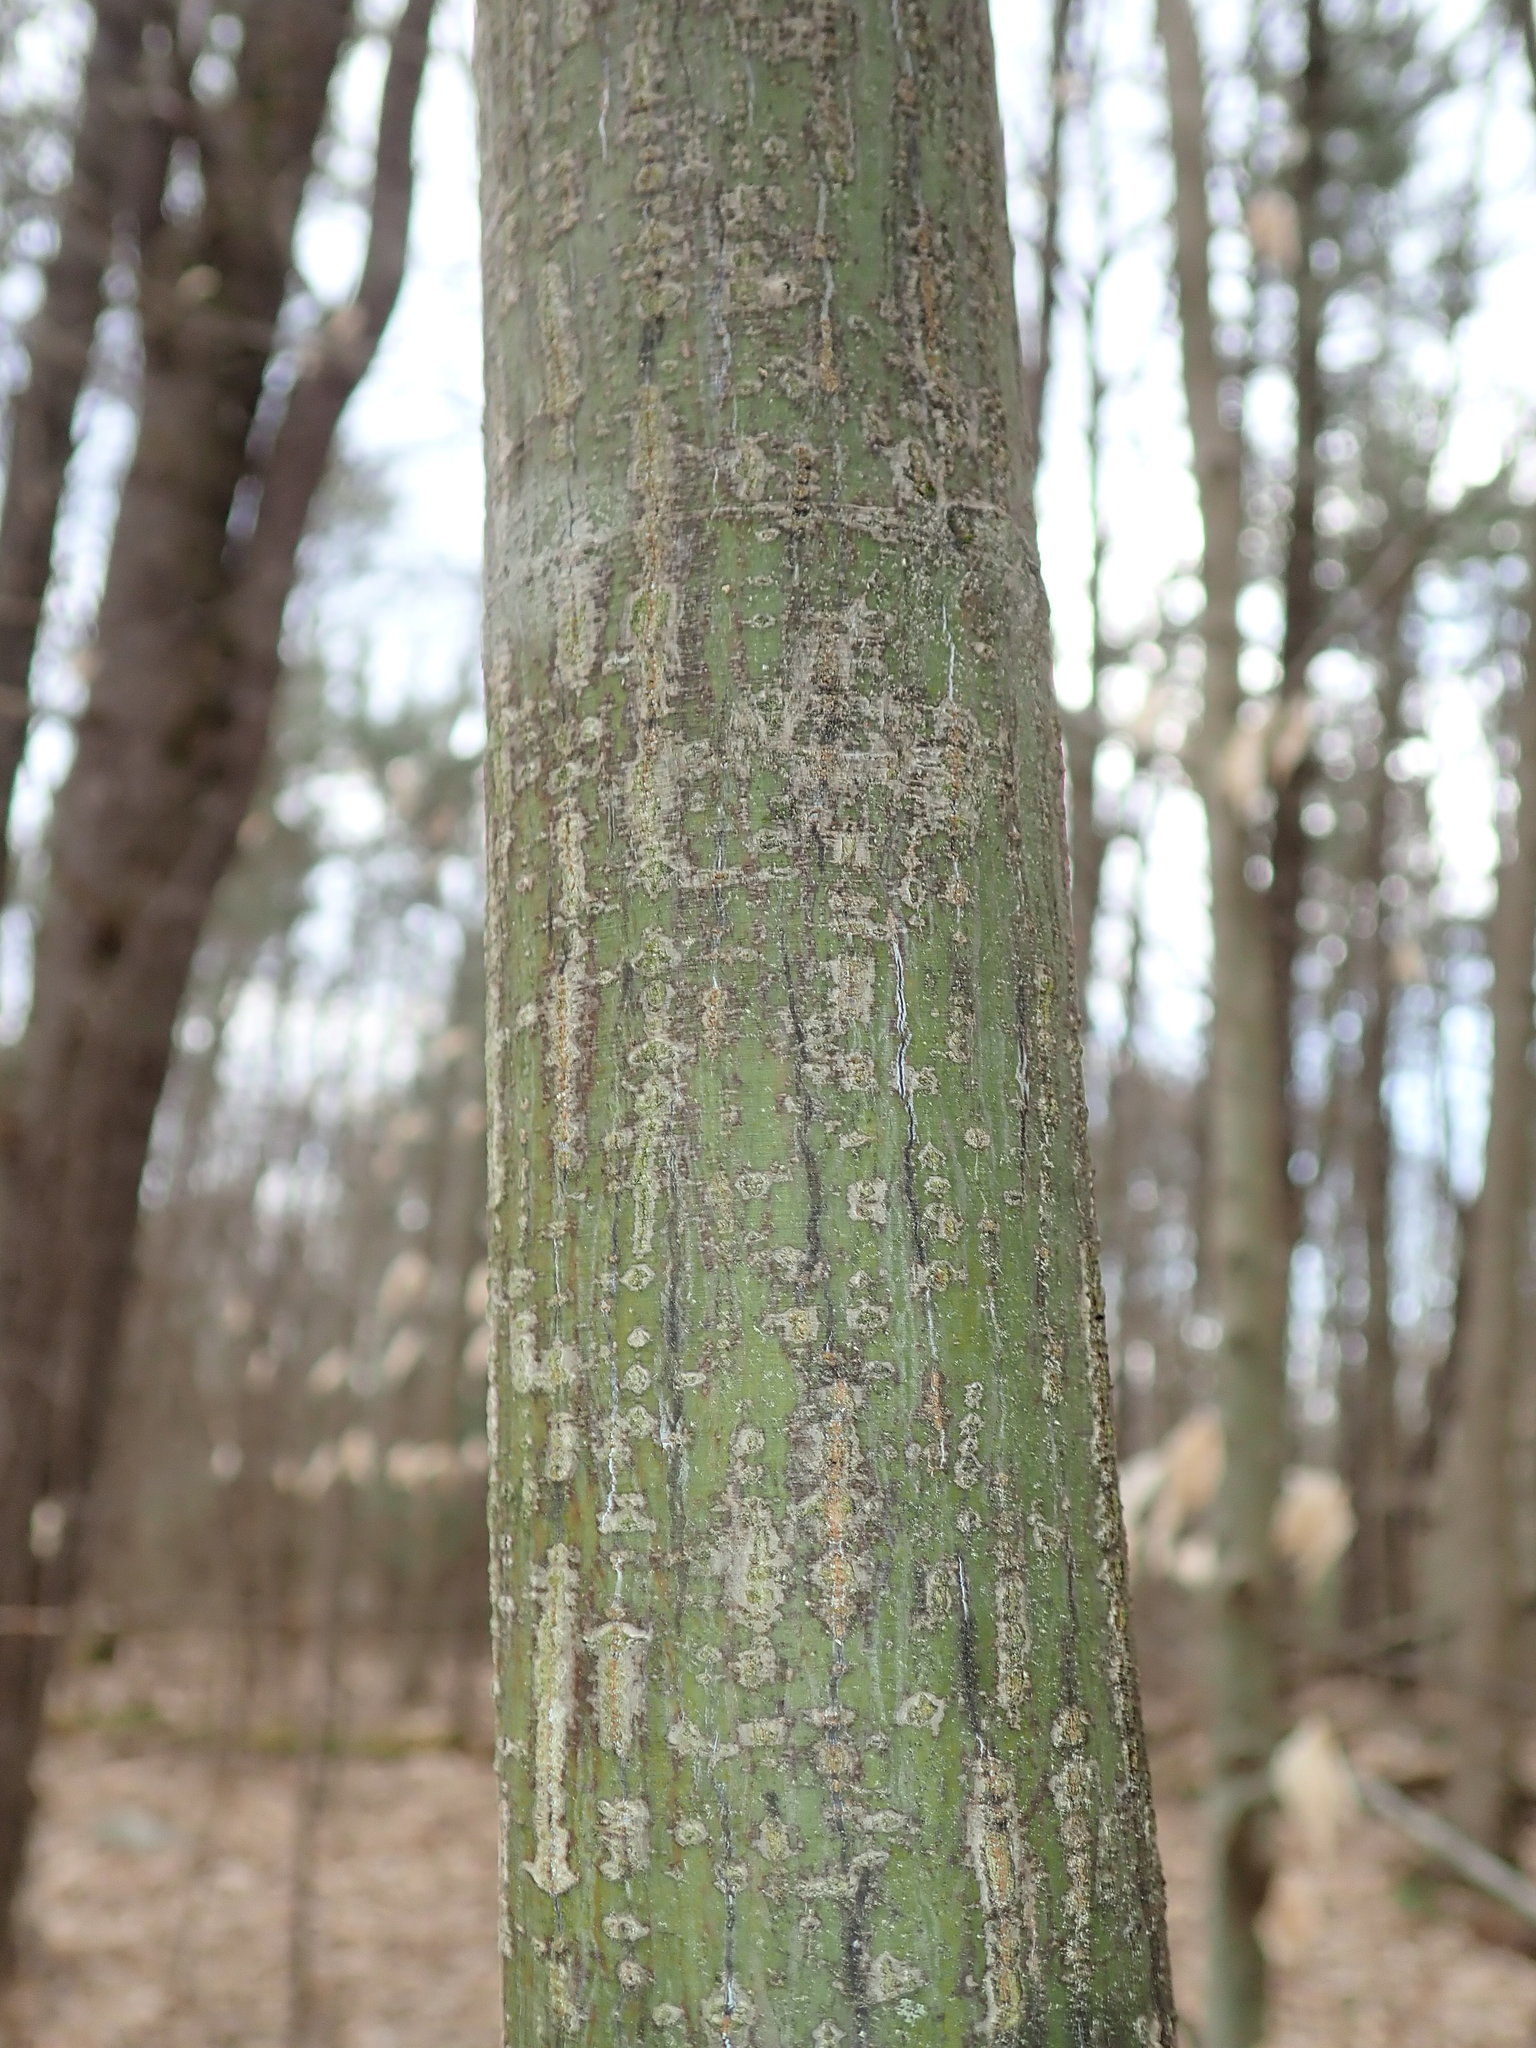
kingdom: Plantae
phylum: Tracheophyta
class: Magnoliopsida
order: Sapindales
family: Sapindaceae
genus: Acer
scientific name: Acer pensylvanicum
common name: Moosewood
